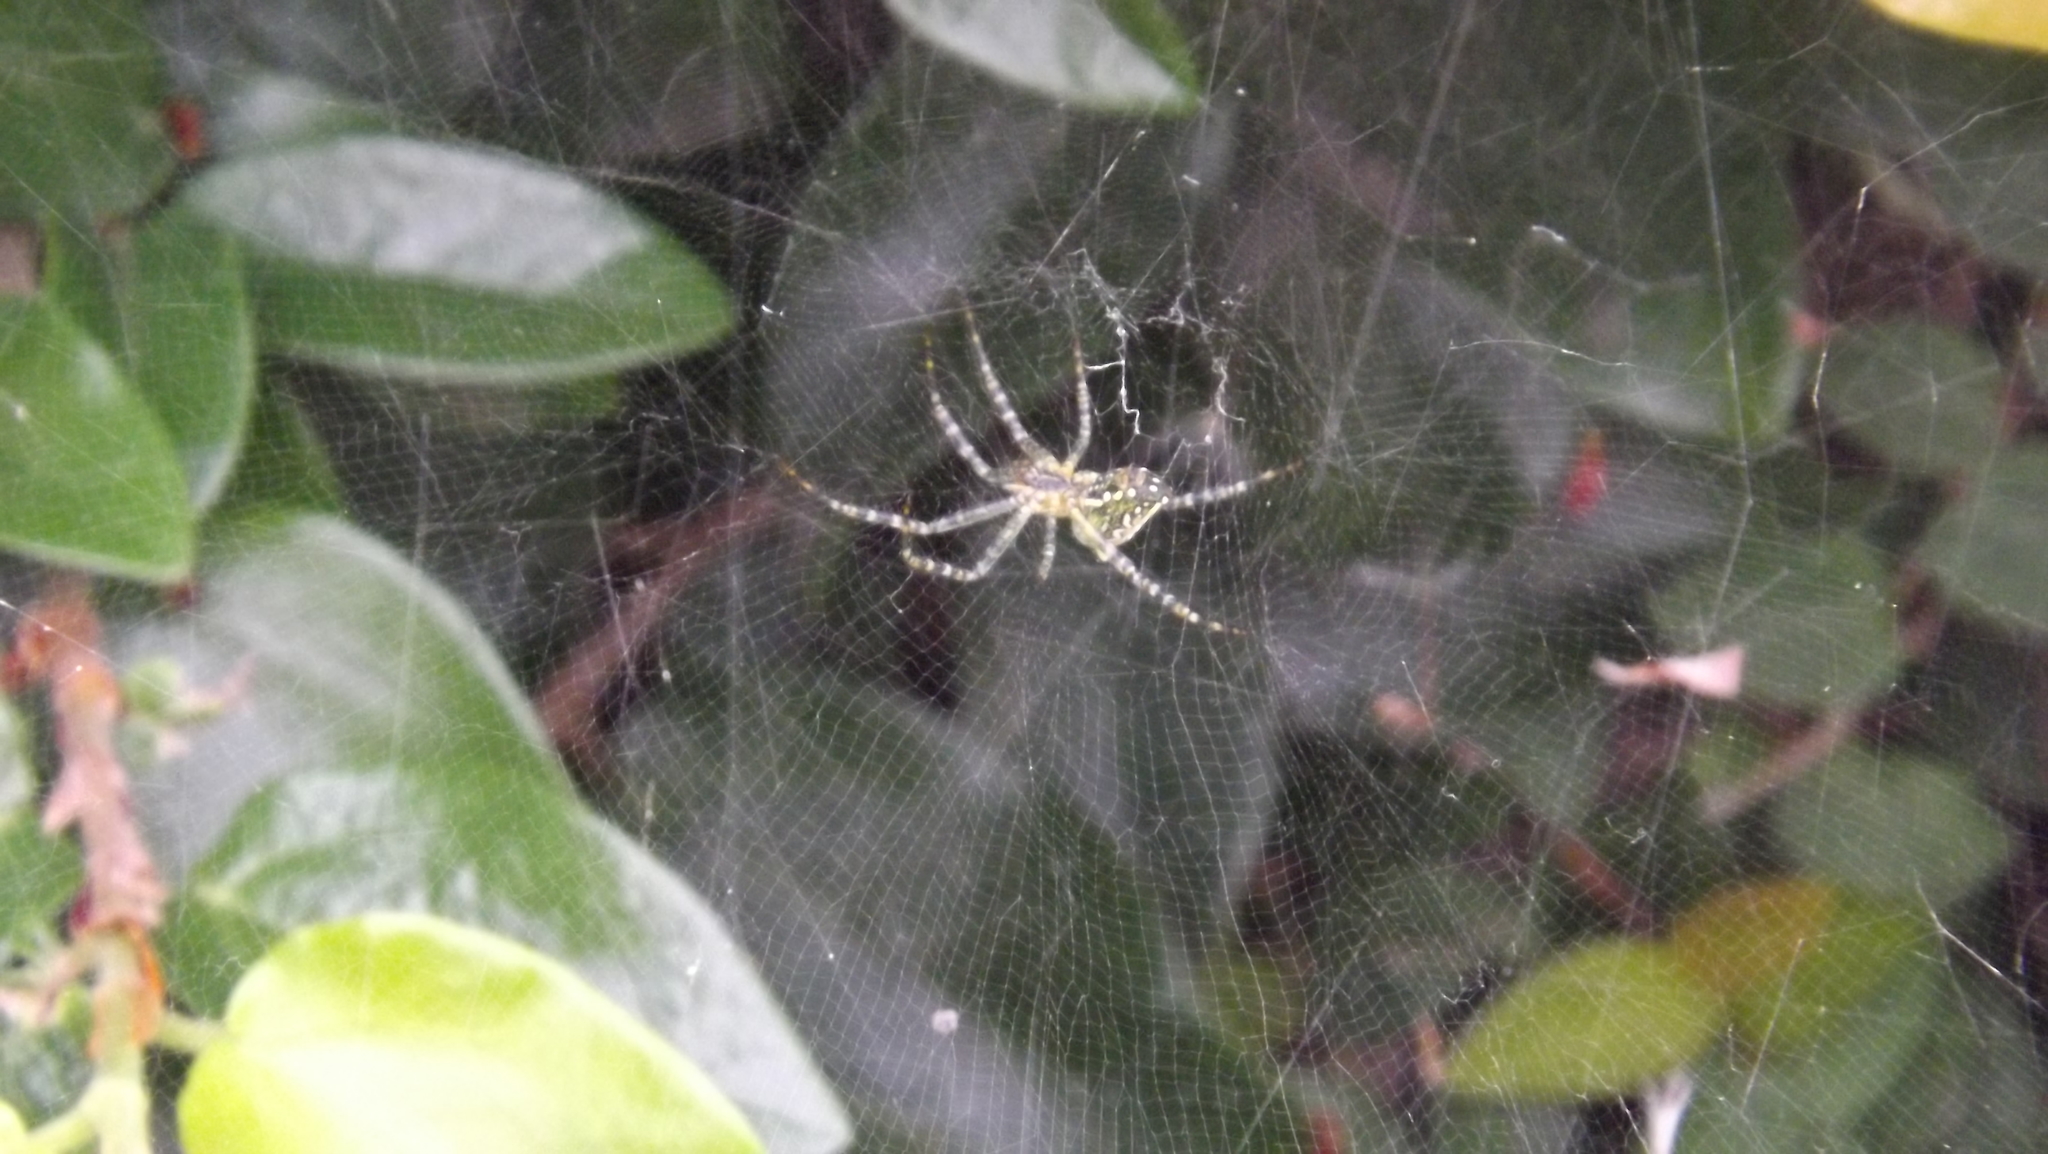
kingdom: Chromista
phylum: Ochrophyta
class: Dictyochophyceae
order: Pedinellales
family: Cyrtophoraceae
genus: Cyrtophora
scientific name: Cyrtophora moluccensis
